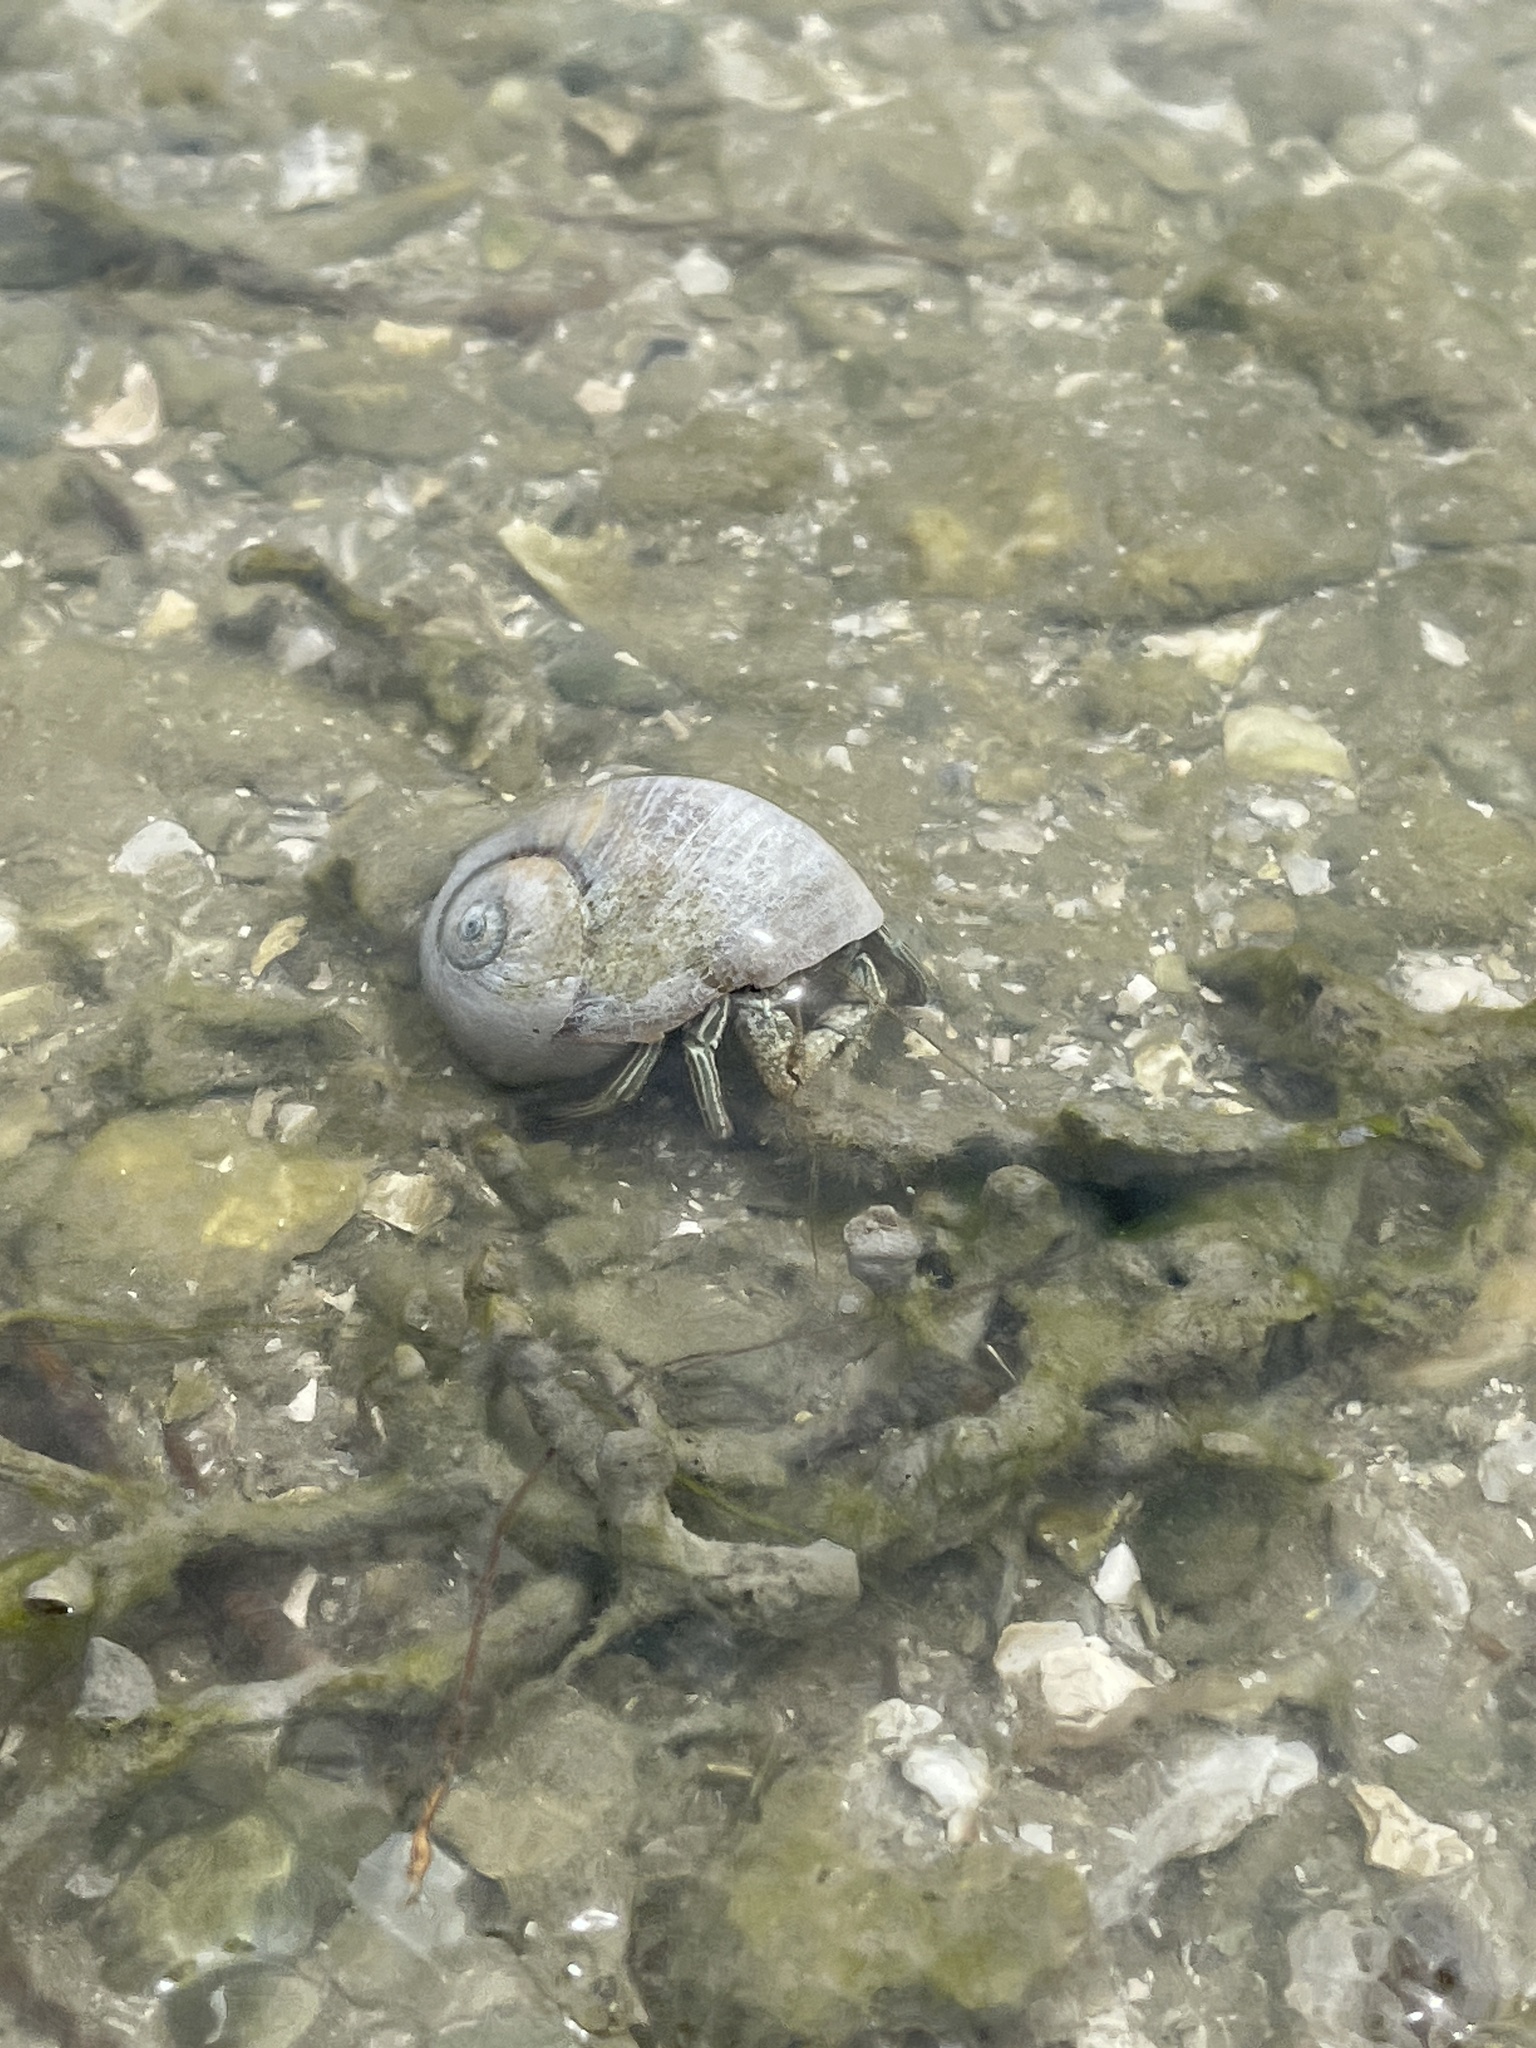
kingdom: Animalia
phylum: Arthropoda
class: Malacostraca
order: Decapoda
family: Diogenidae
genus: Clibanarius
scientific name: Clibanarius vittatus
